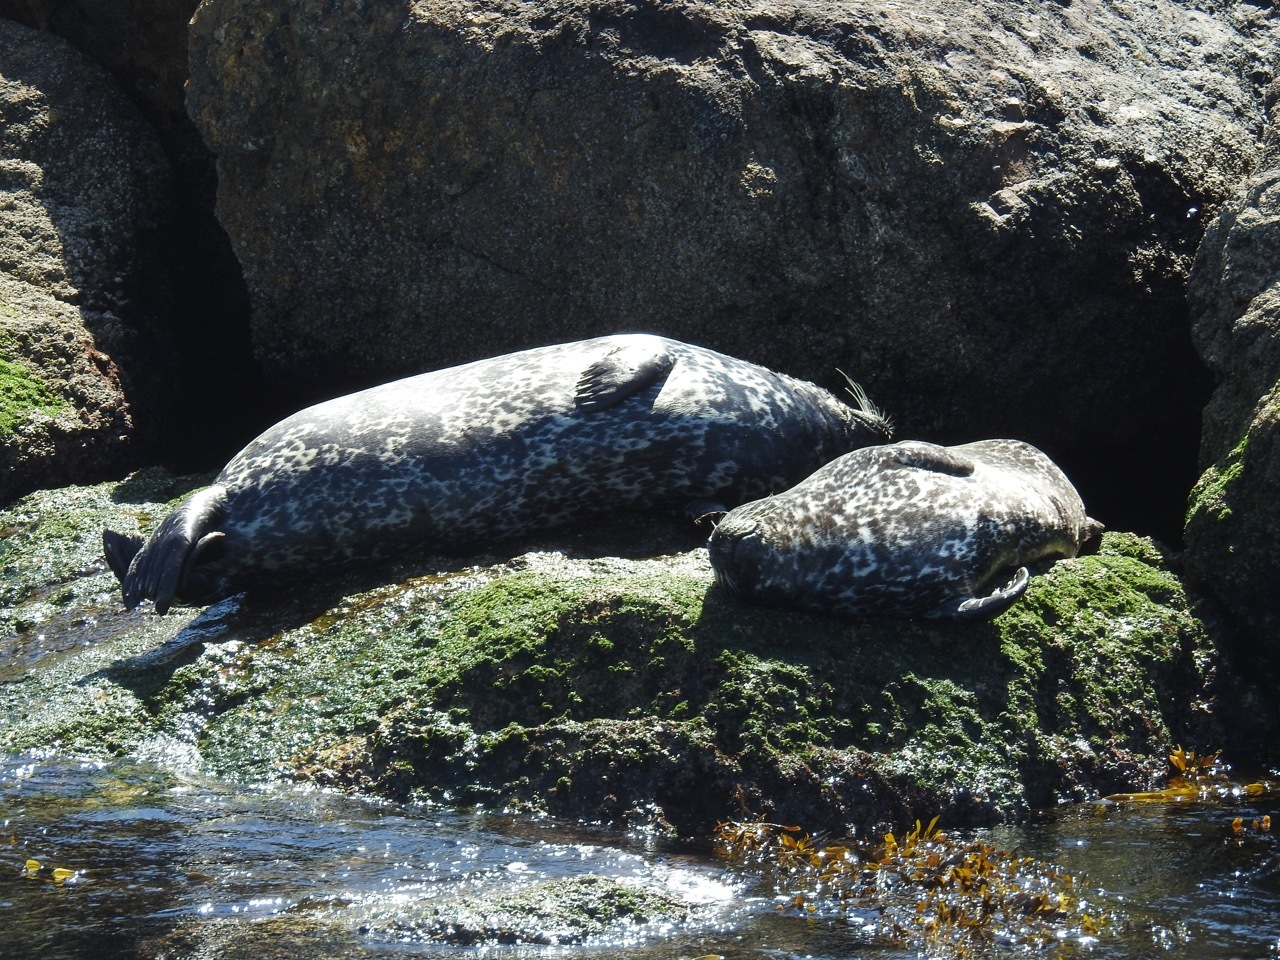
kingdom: Animalia
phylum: Chordata
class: Mammalia
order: Carnivora
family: Phocidae
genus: Phoca
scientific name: Phoca vitulina
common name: Harbor seal
